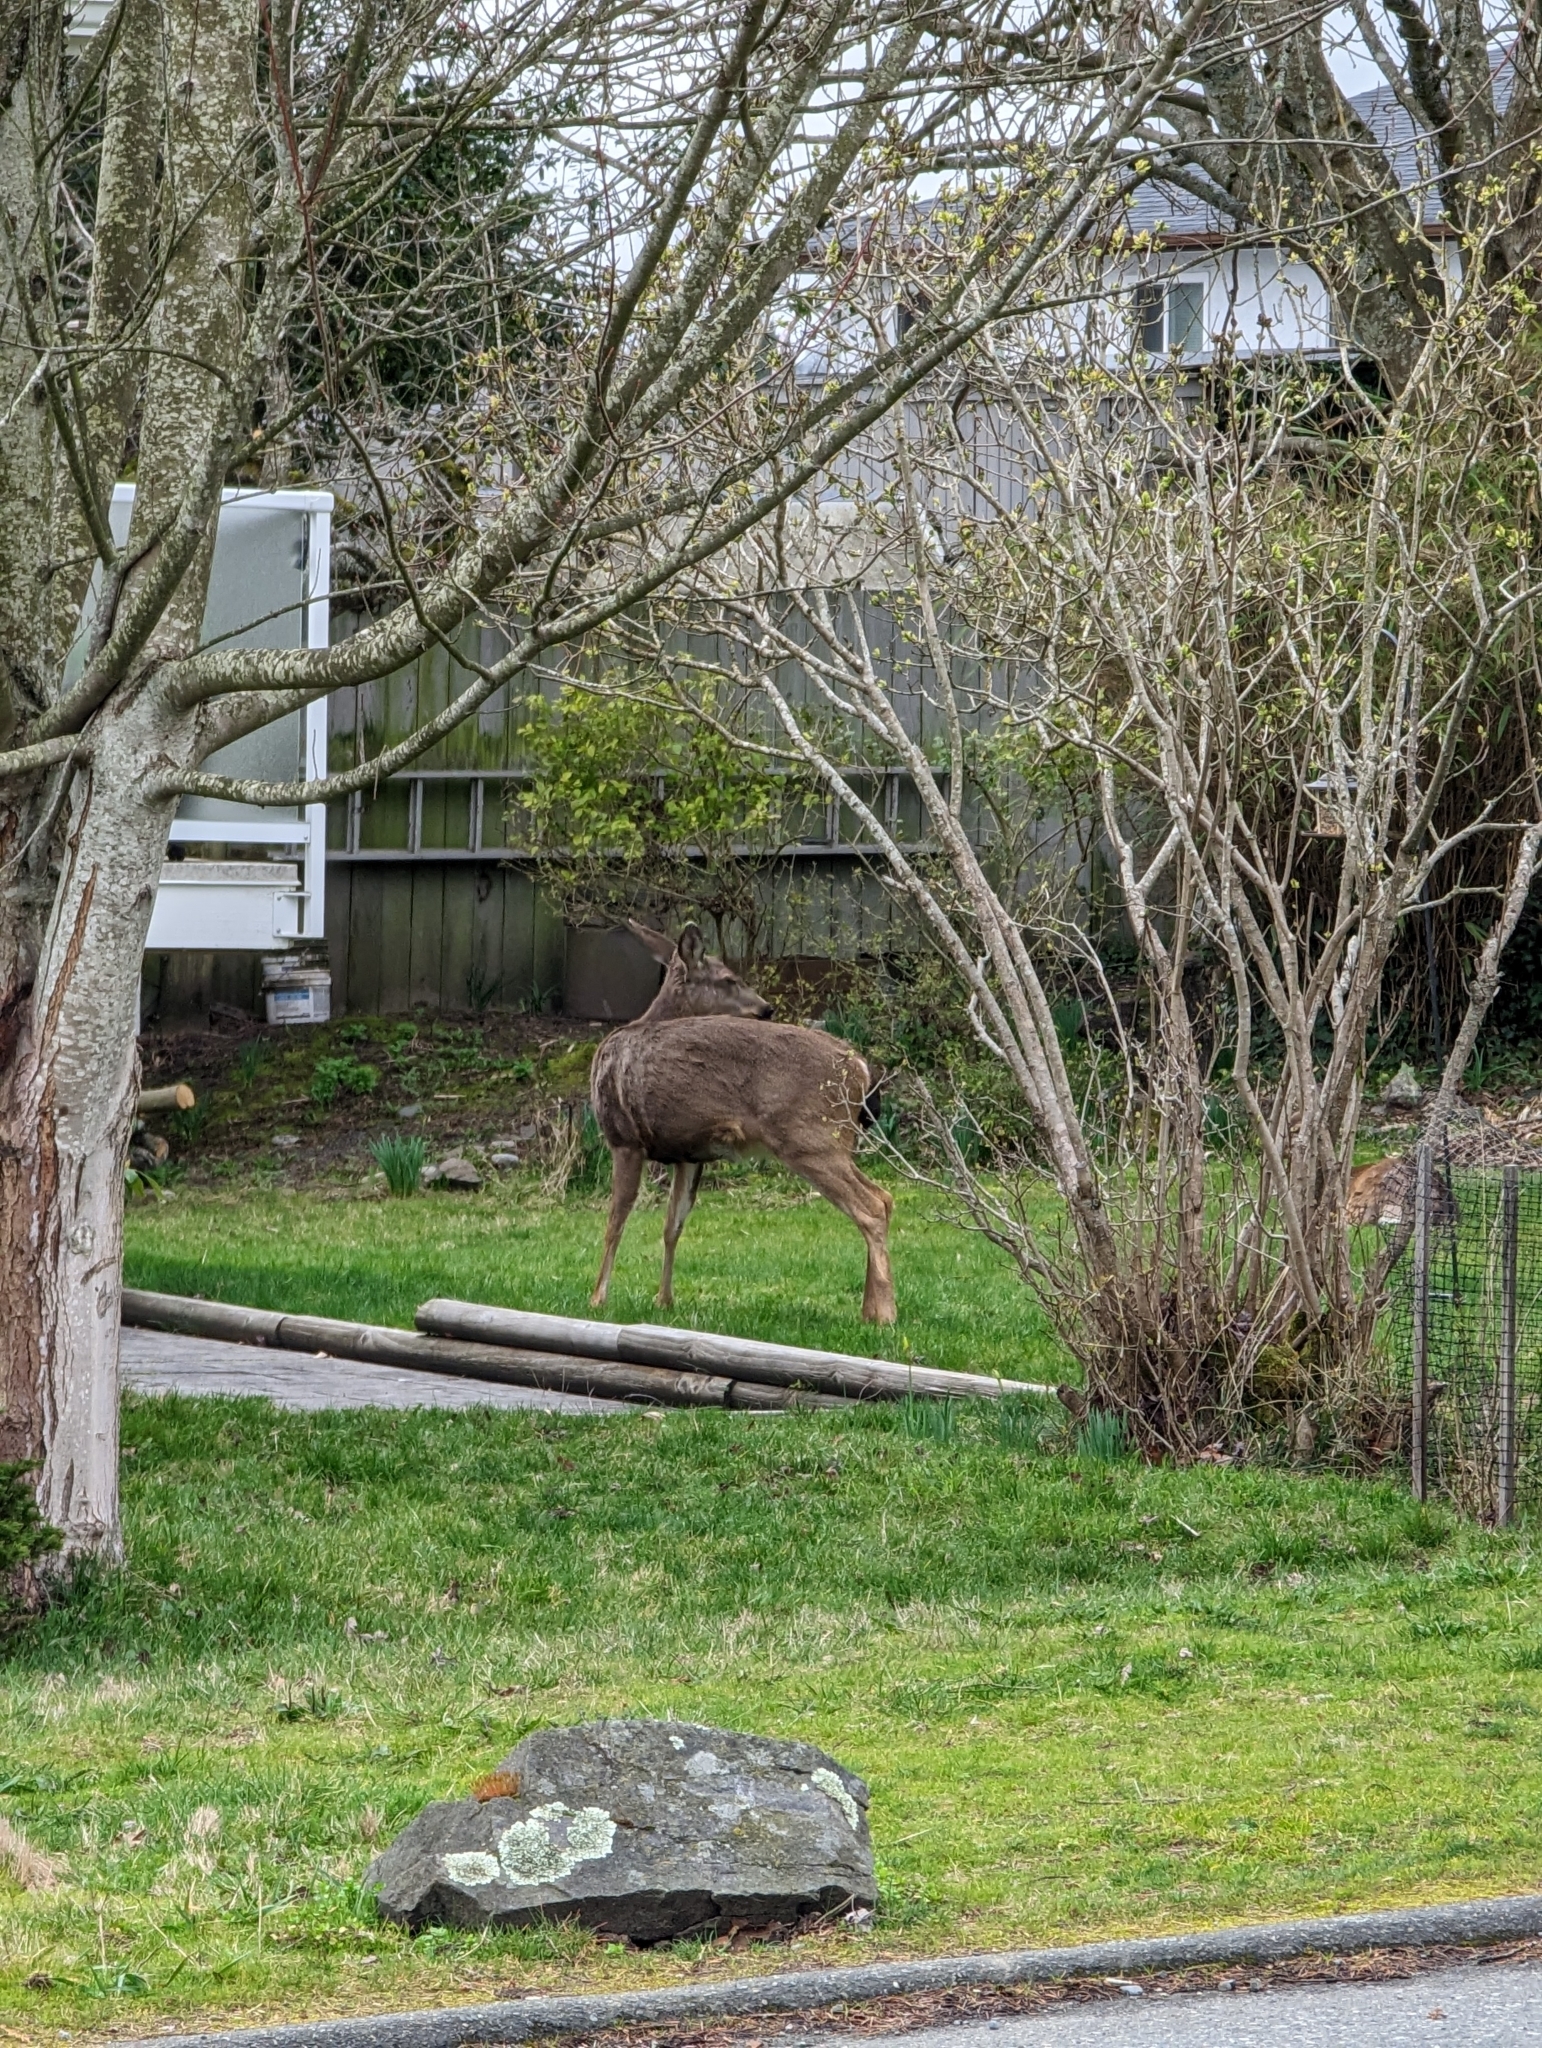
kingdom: Animalia
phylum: Chordata
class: Mammalia
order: Artiodactyla
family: Cervidae
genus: Odocoileus
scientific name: Odocoileus hemionus
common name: Mule deer
